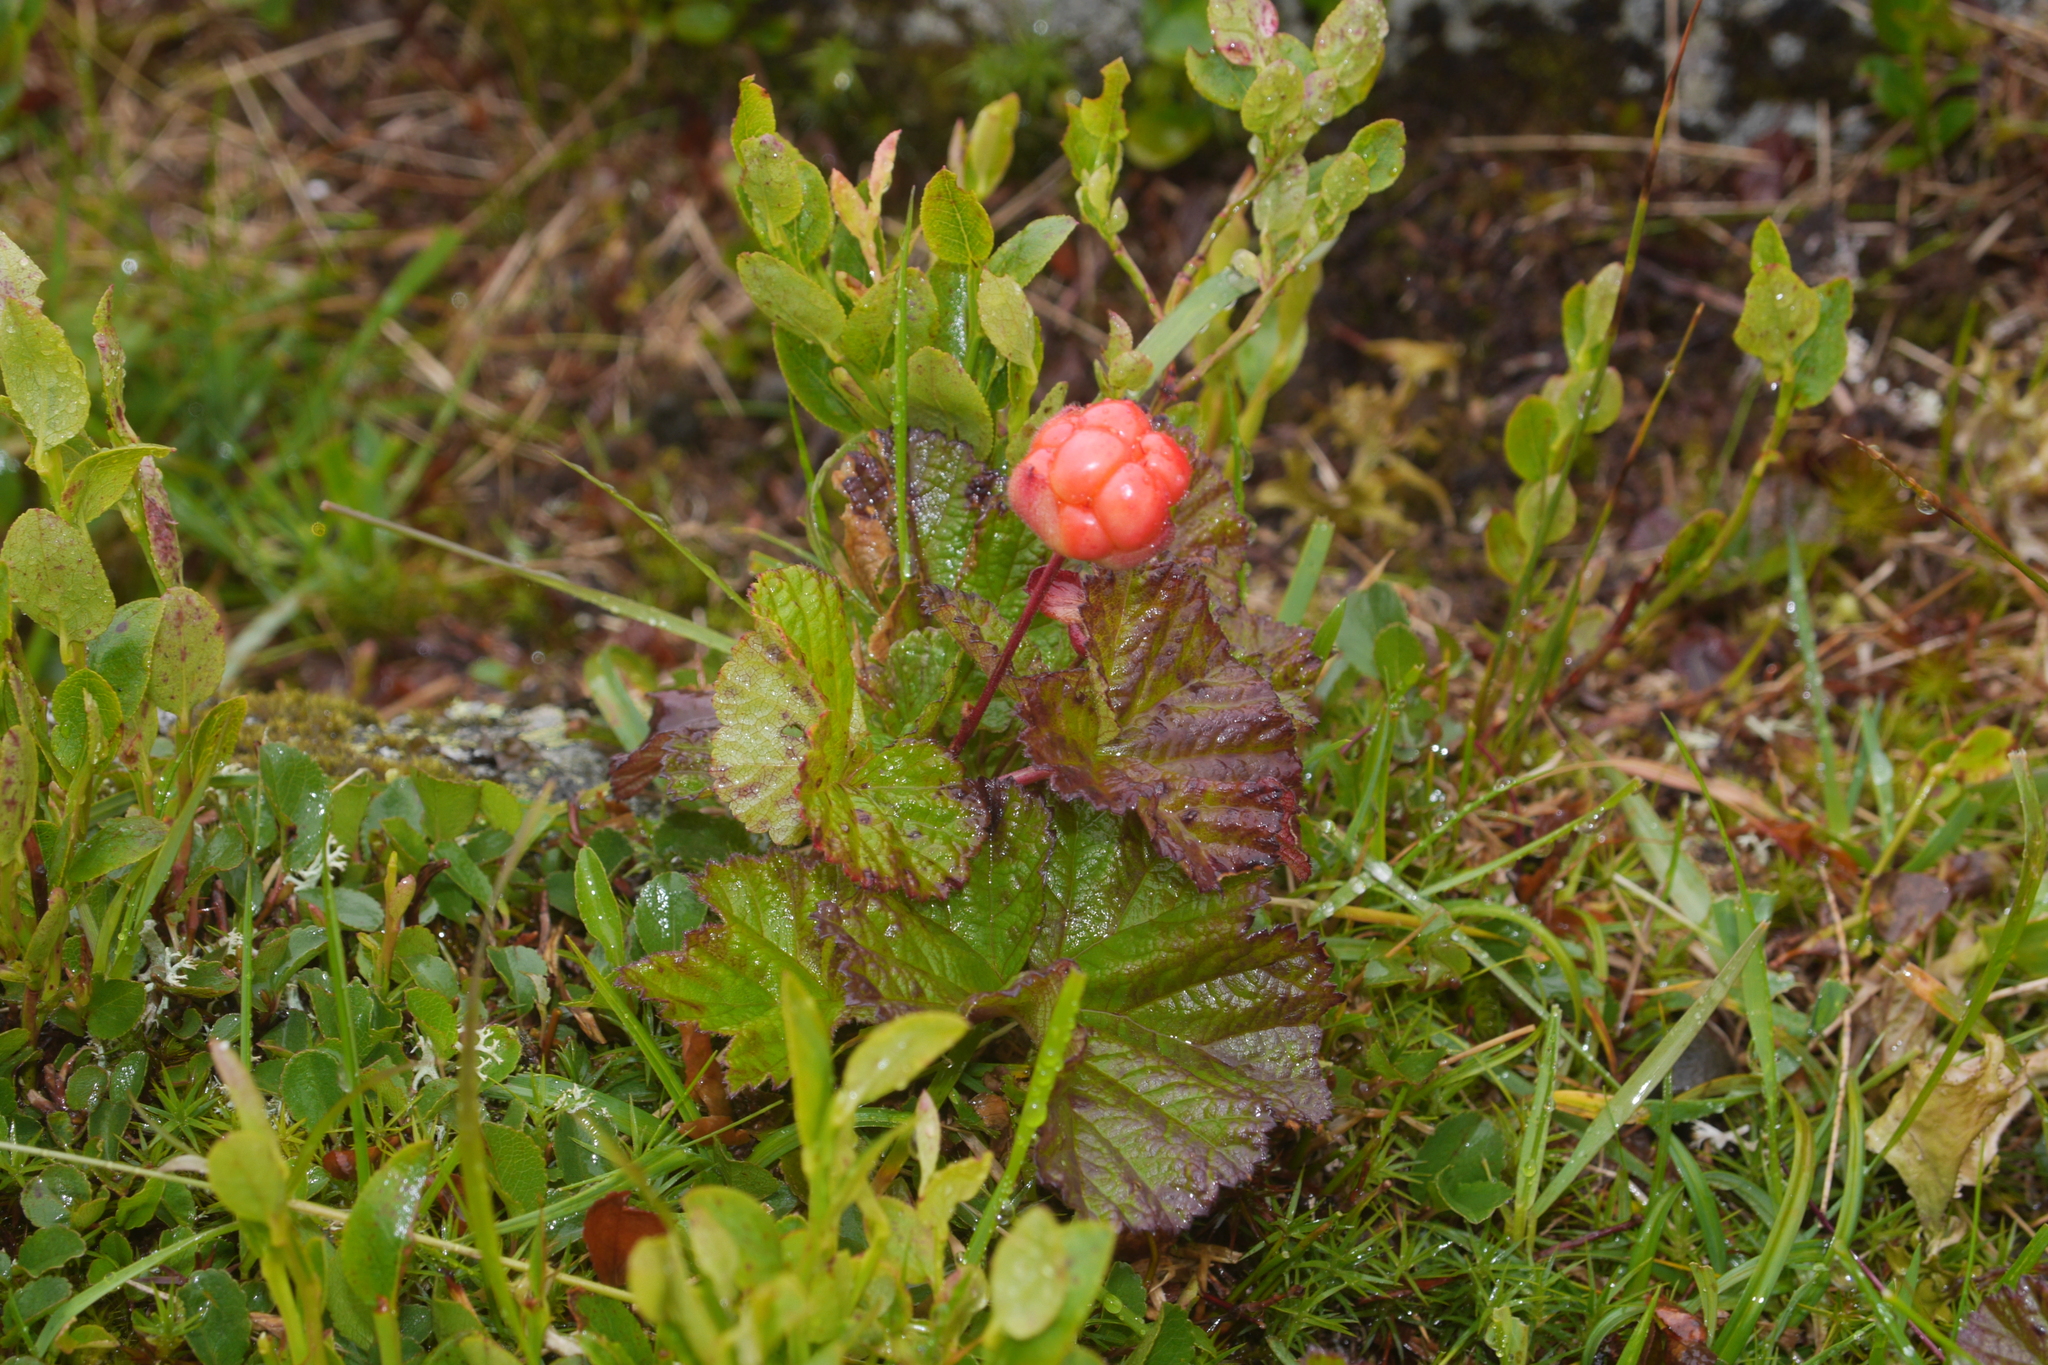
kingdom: Plantae
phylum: Tracheophyta
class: Magnoliopsida
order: Rosales
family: Rosaceae
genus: Rubus
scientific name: Rubus chamaemorus
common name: Cloudberry
